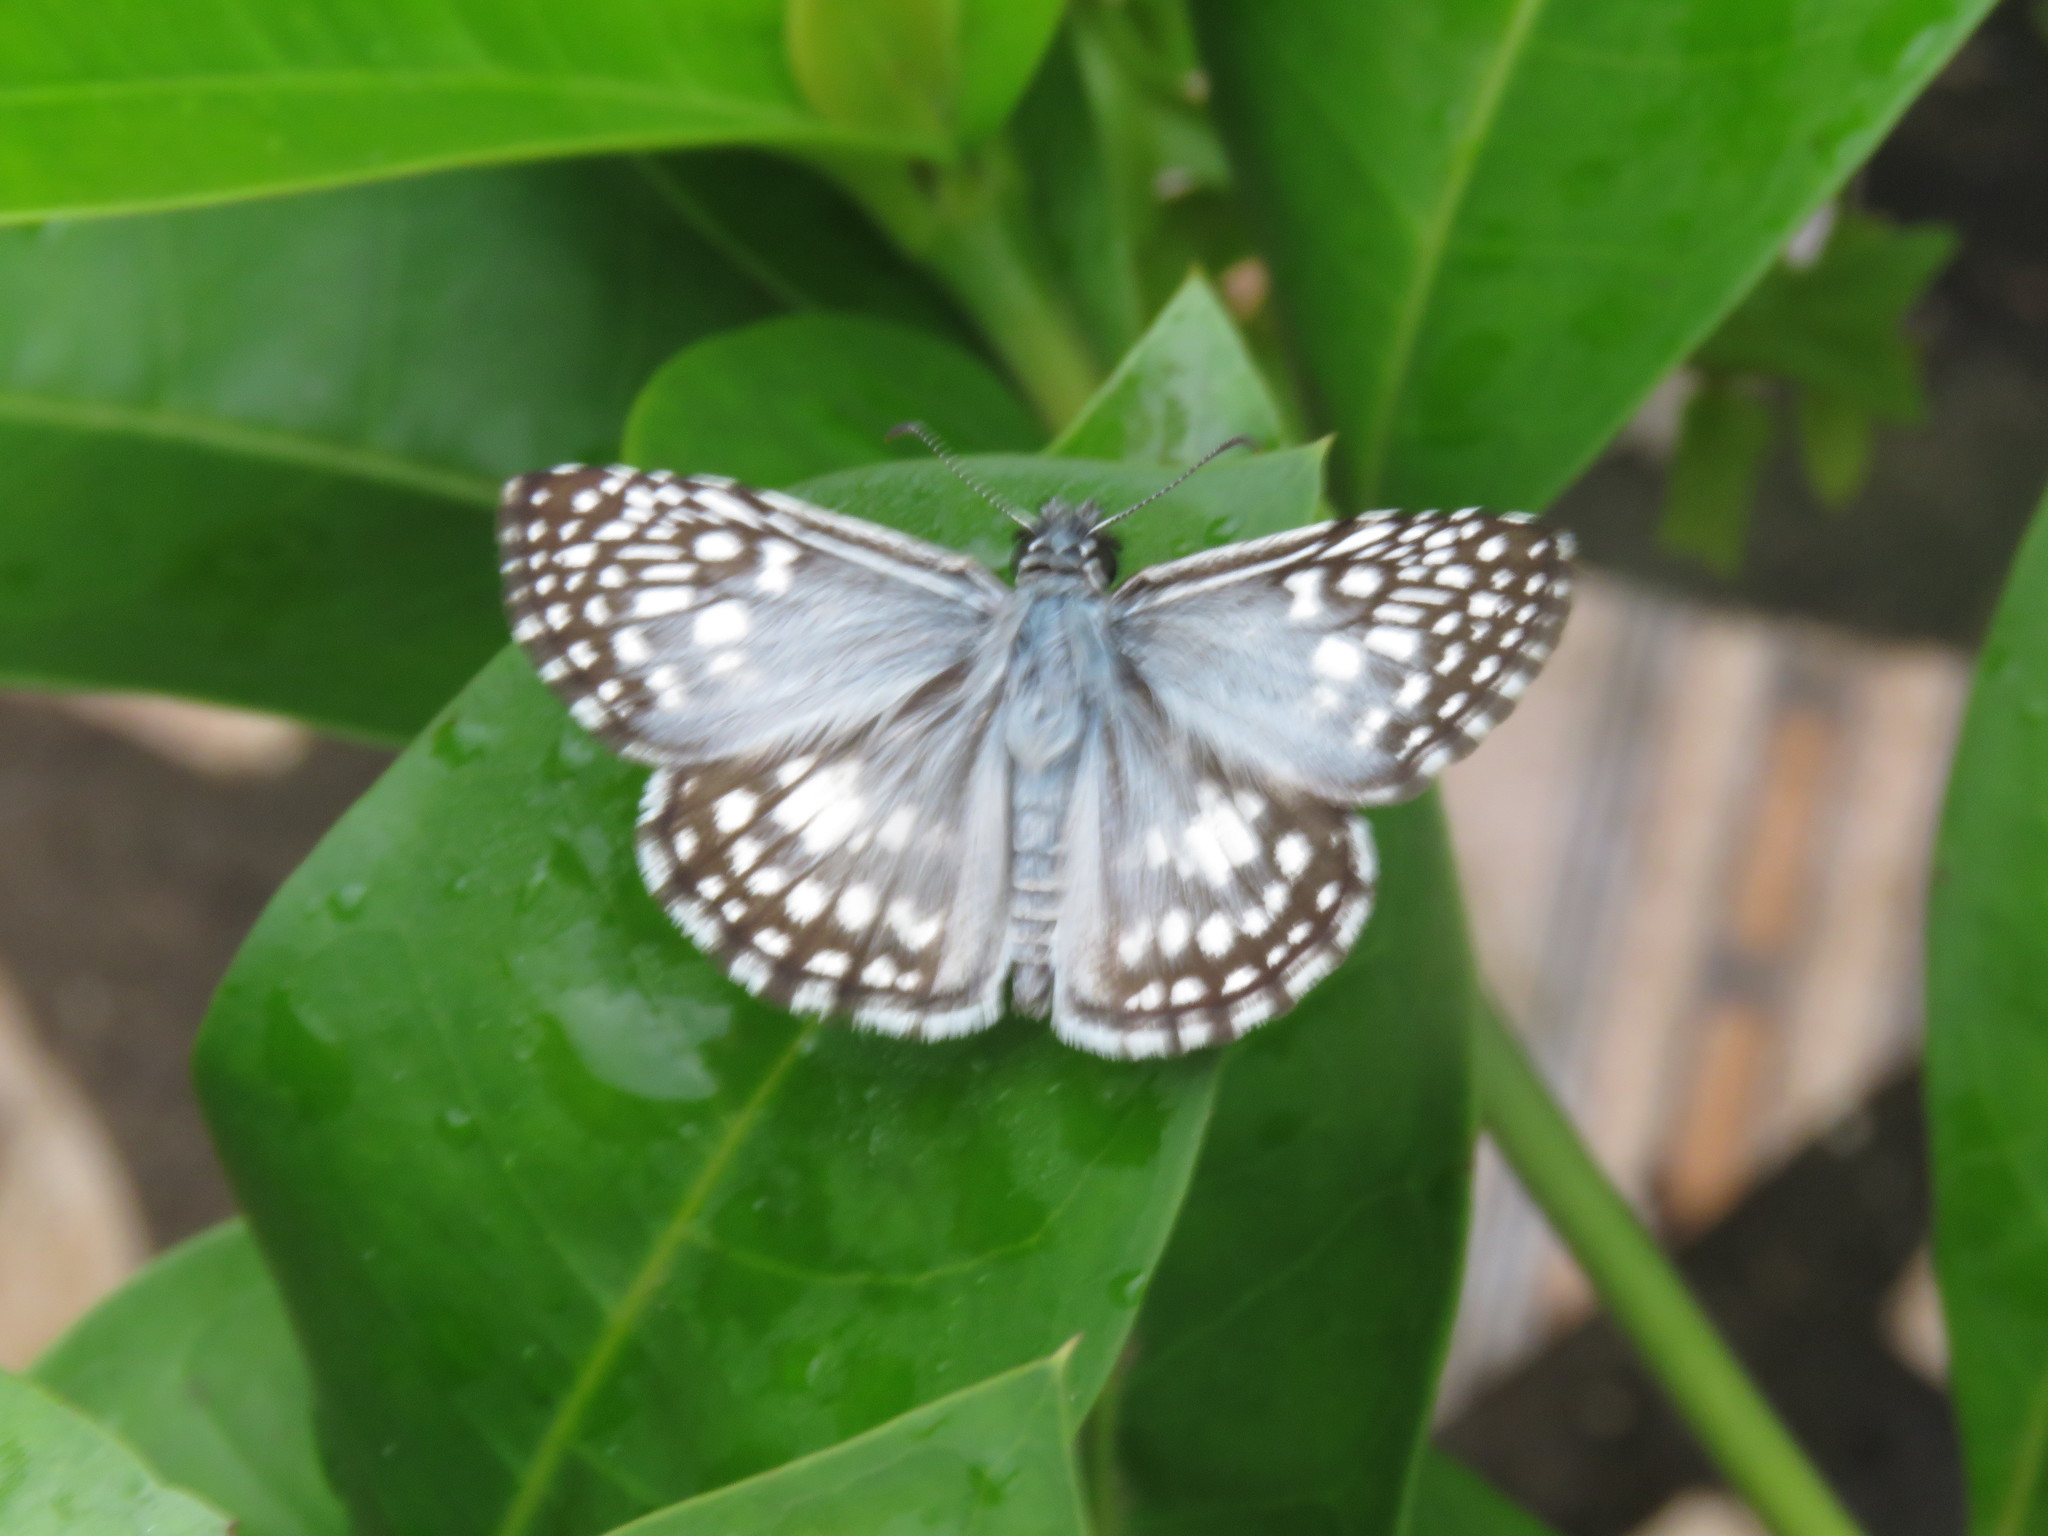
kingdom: Animalia
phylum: Arthropoda
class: Insecta
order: Lepidoptera
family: Hesperiidae
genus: Pyrgus
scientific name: Pyrgus oileus
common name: Tropical checkered-skipper
